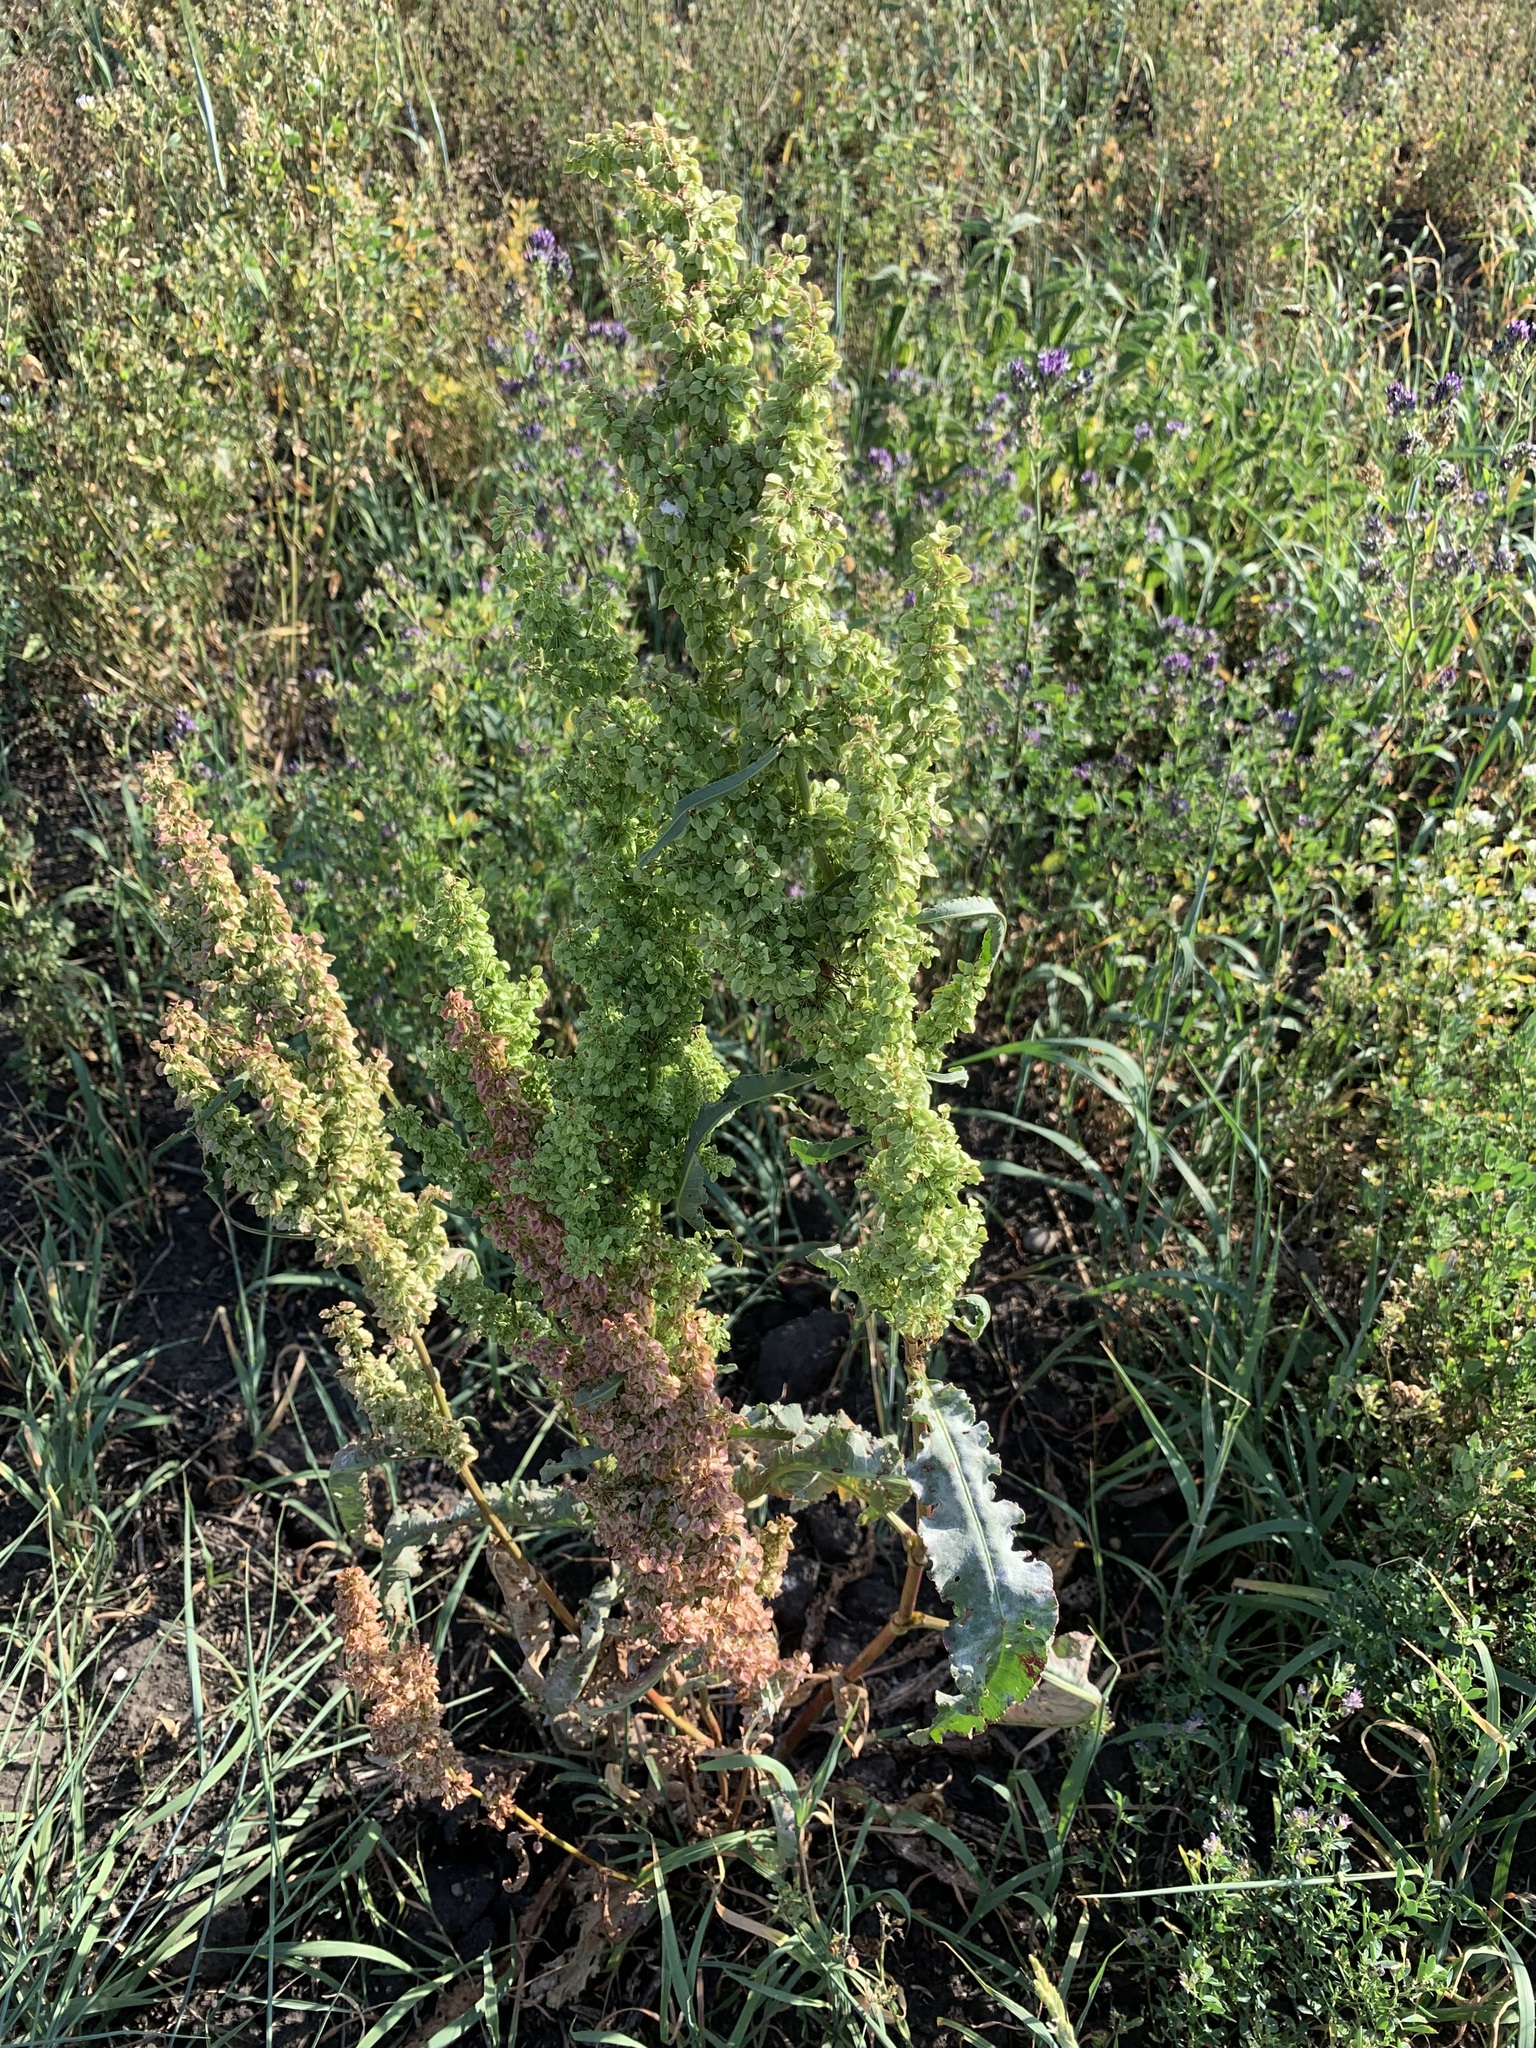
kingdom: Plantae
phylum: Tracheophyta
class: Magnoliopsida
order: Caryophyllales
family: Polygonaceae
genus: Rumex
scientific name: Rumex pseudonatronatus
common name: Field dock
